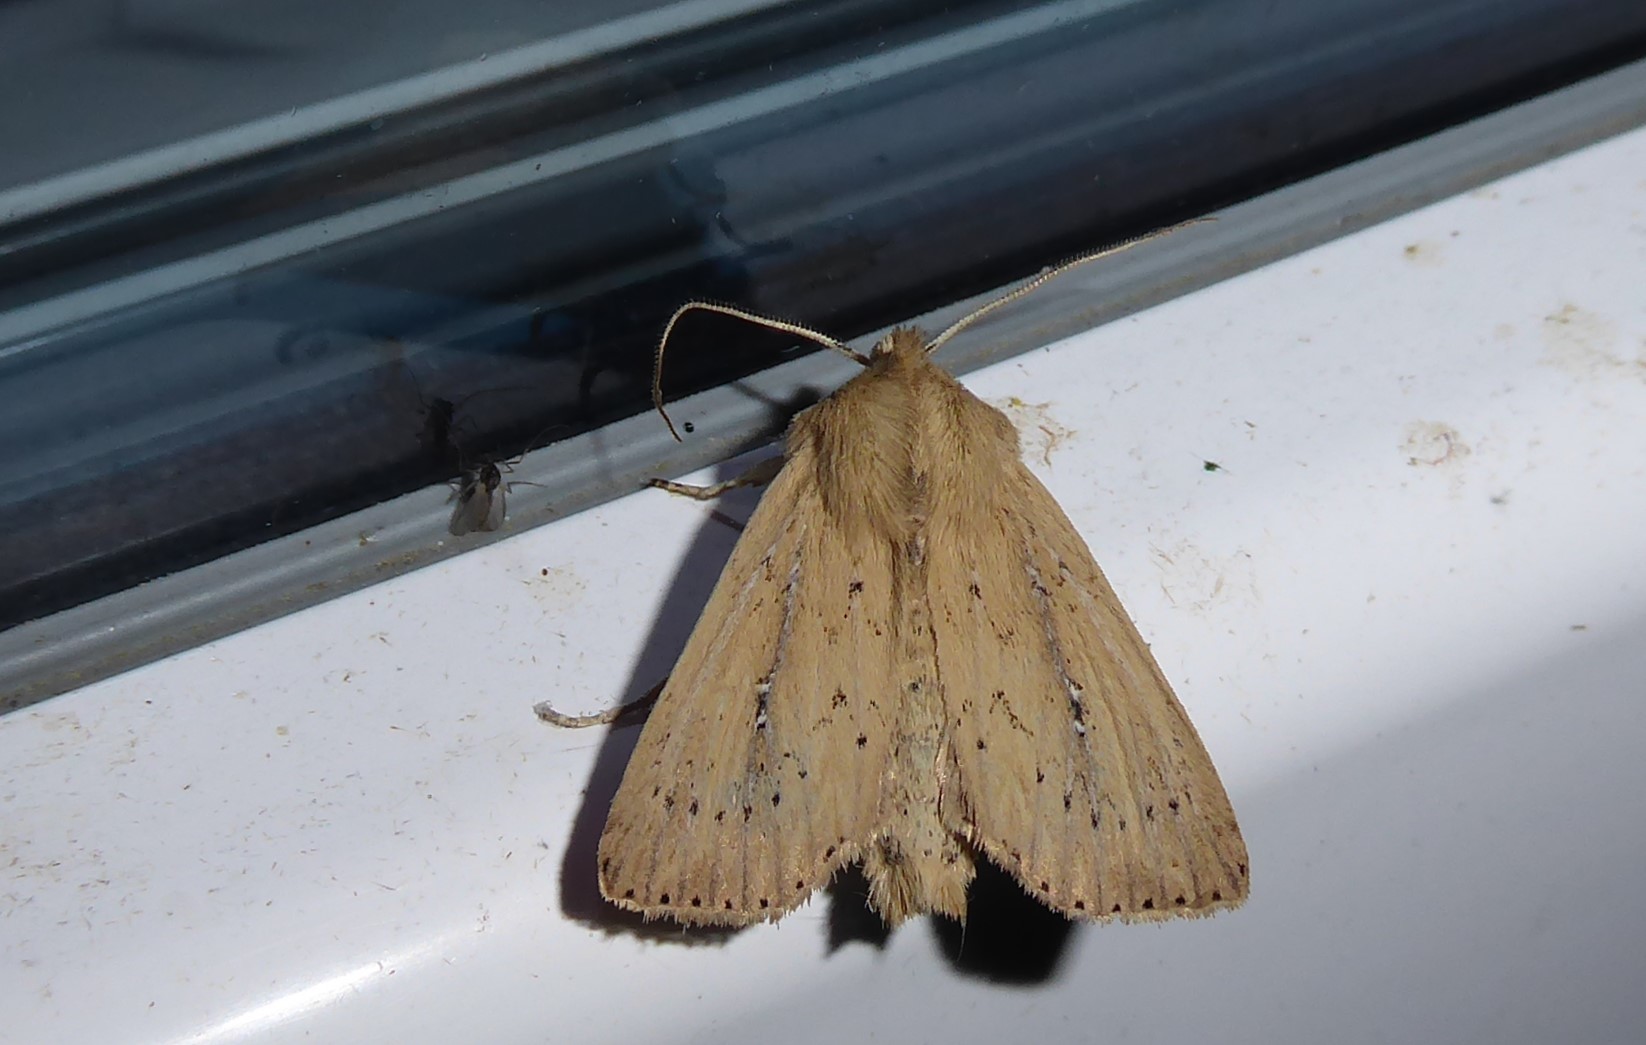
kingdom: Animalia
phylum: Arthropoda
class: Insecta
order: Lepidoptera
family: Noctuidae
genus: Ichneutica
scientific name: Ichneutica
